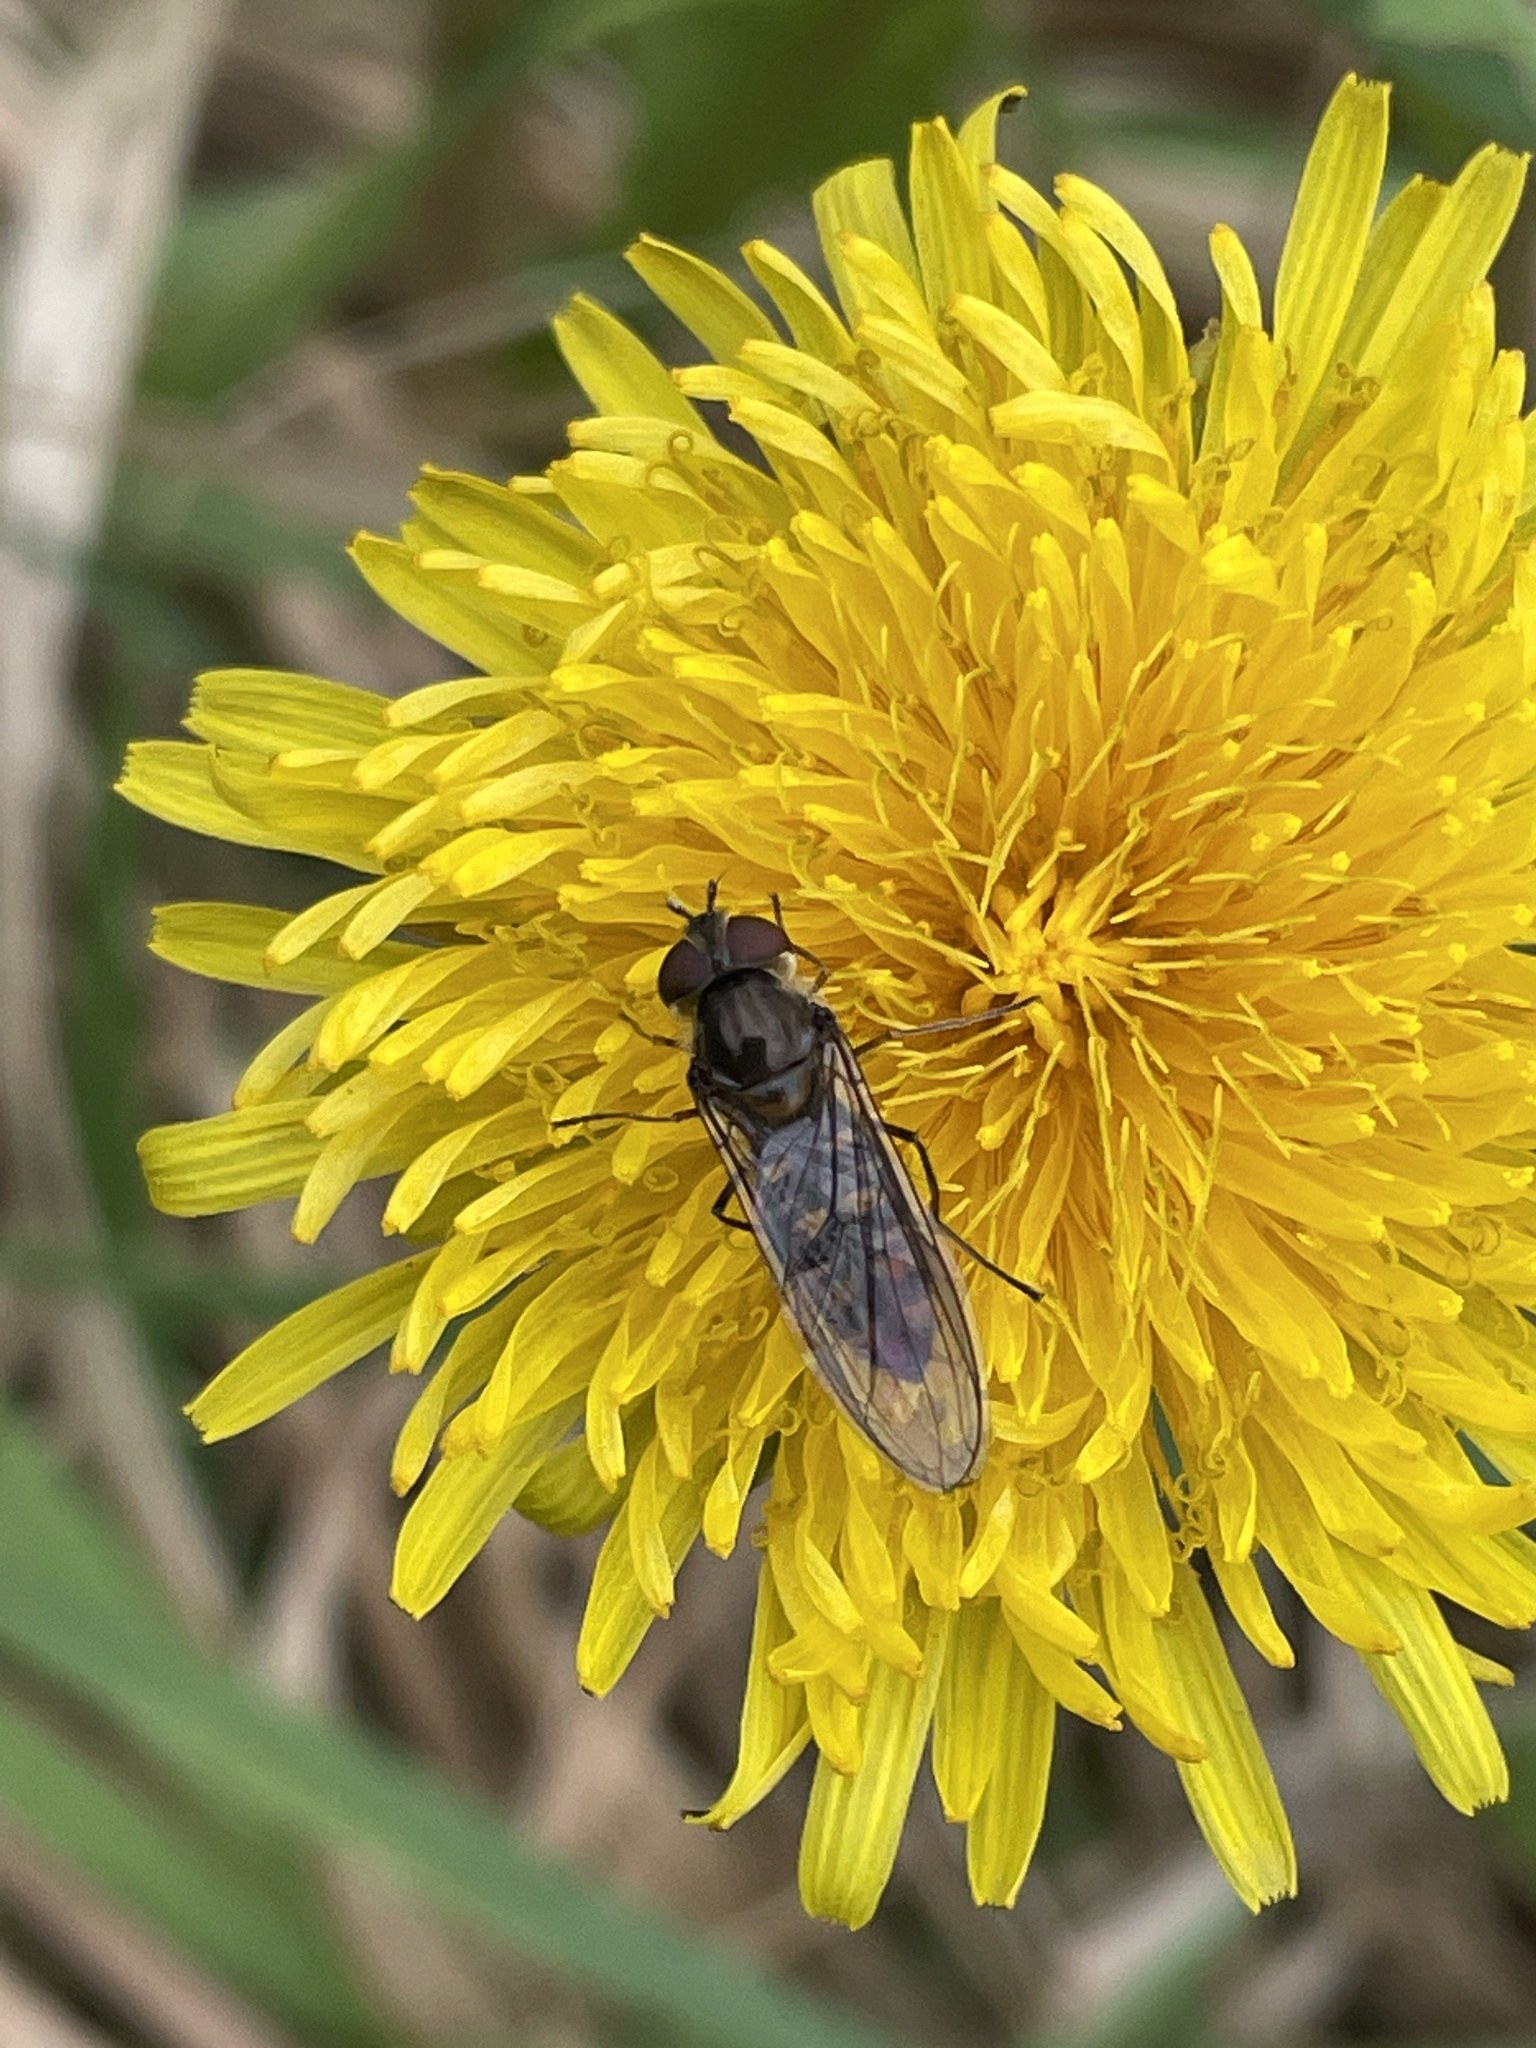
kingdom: Animalia
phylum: Arthropoda
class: Insecta
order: Diptera
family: Syrphidae
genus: Episyrphus
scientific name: Episyrphus balteatus
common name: Marmalade hoverfly
